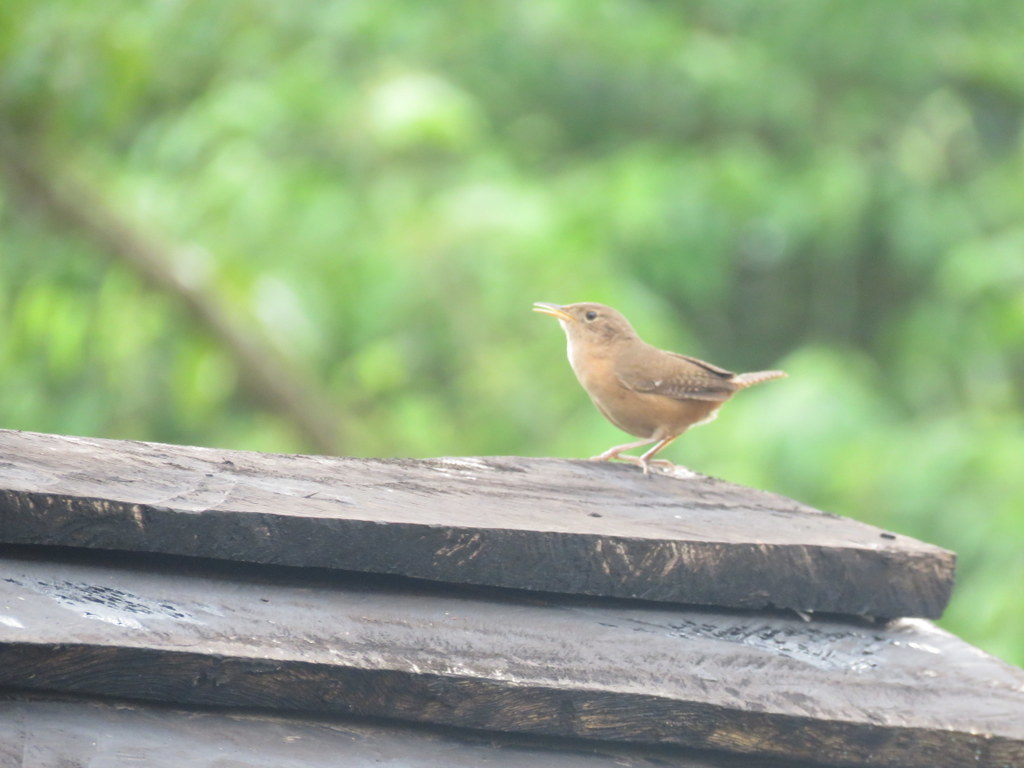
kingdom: Animalia
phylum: Chordata
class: Aves
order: Passeriformes
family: Troglodytidae
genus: Troglodytes
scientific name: Troglodytes aedon
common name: House wren
